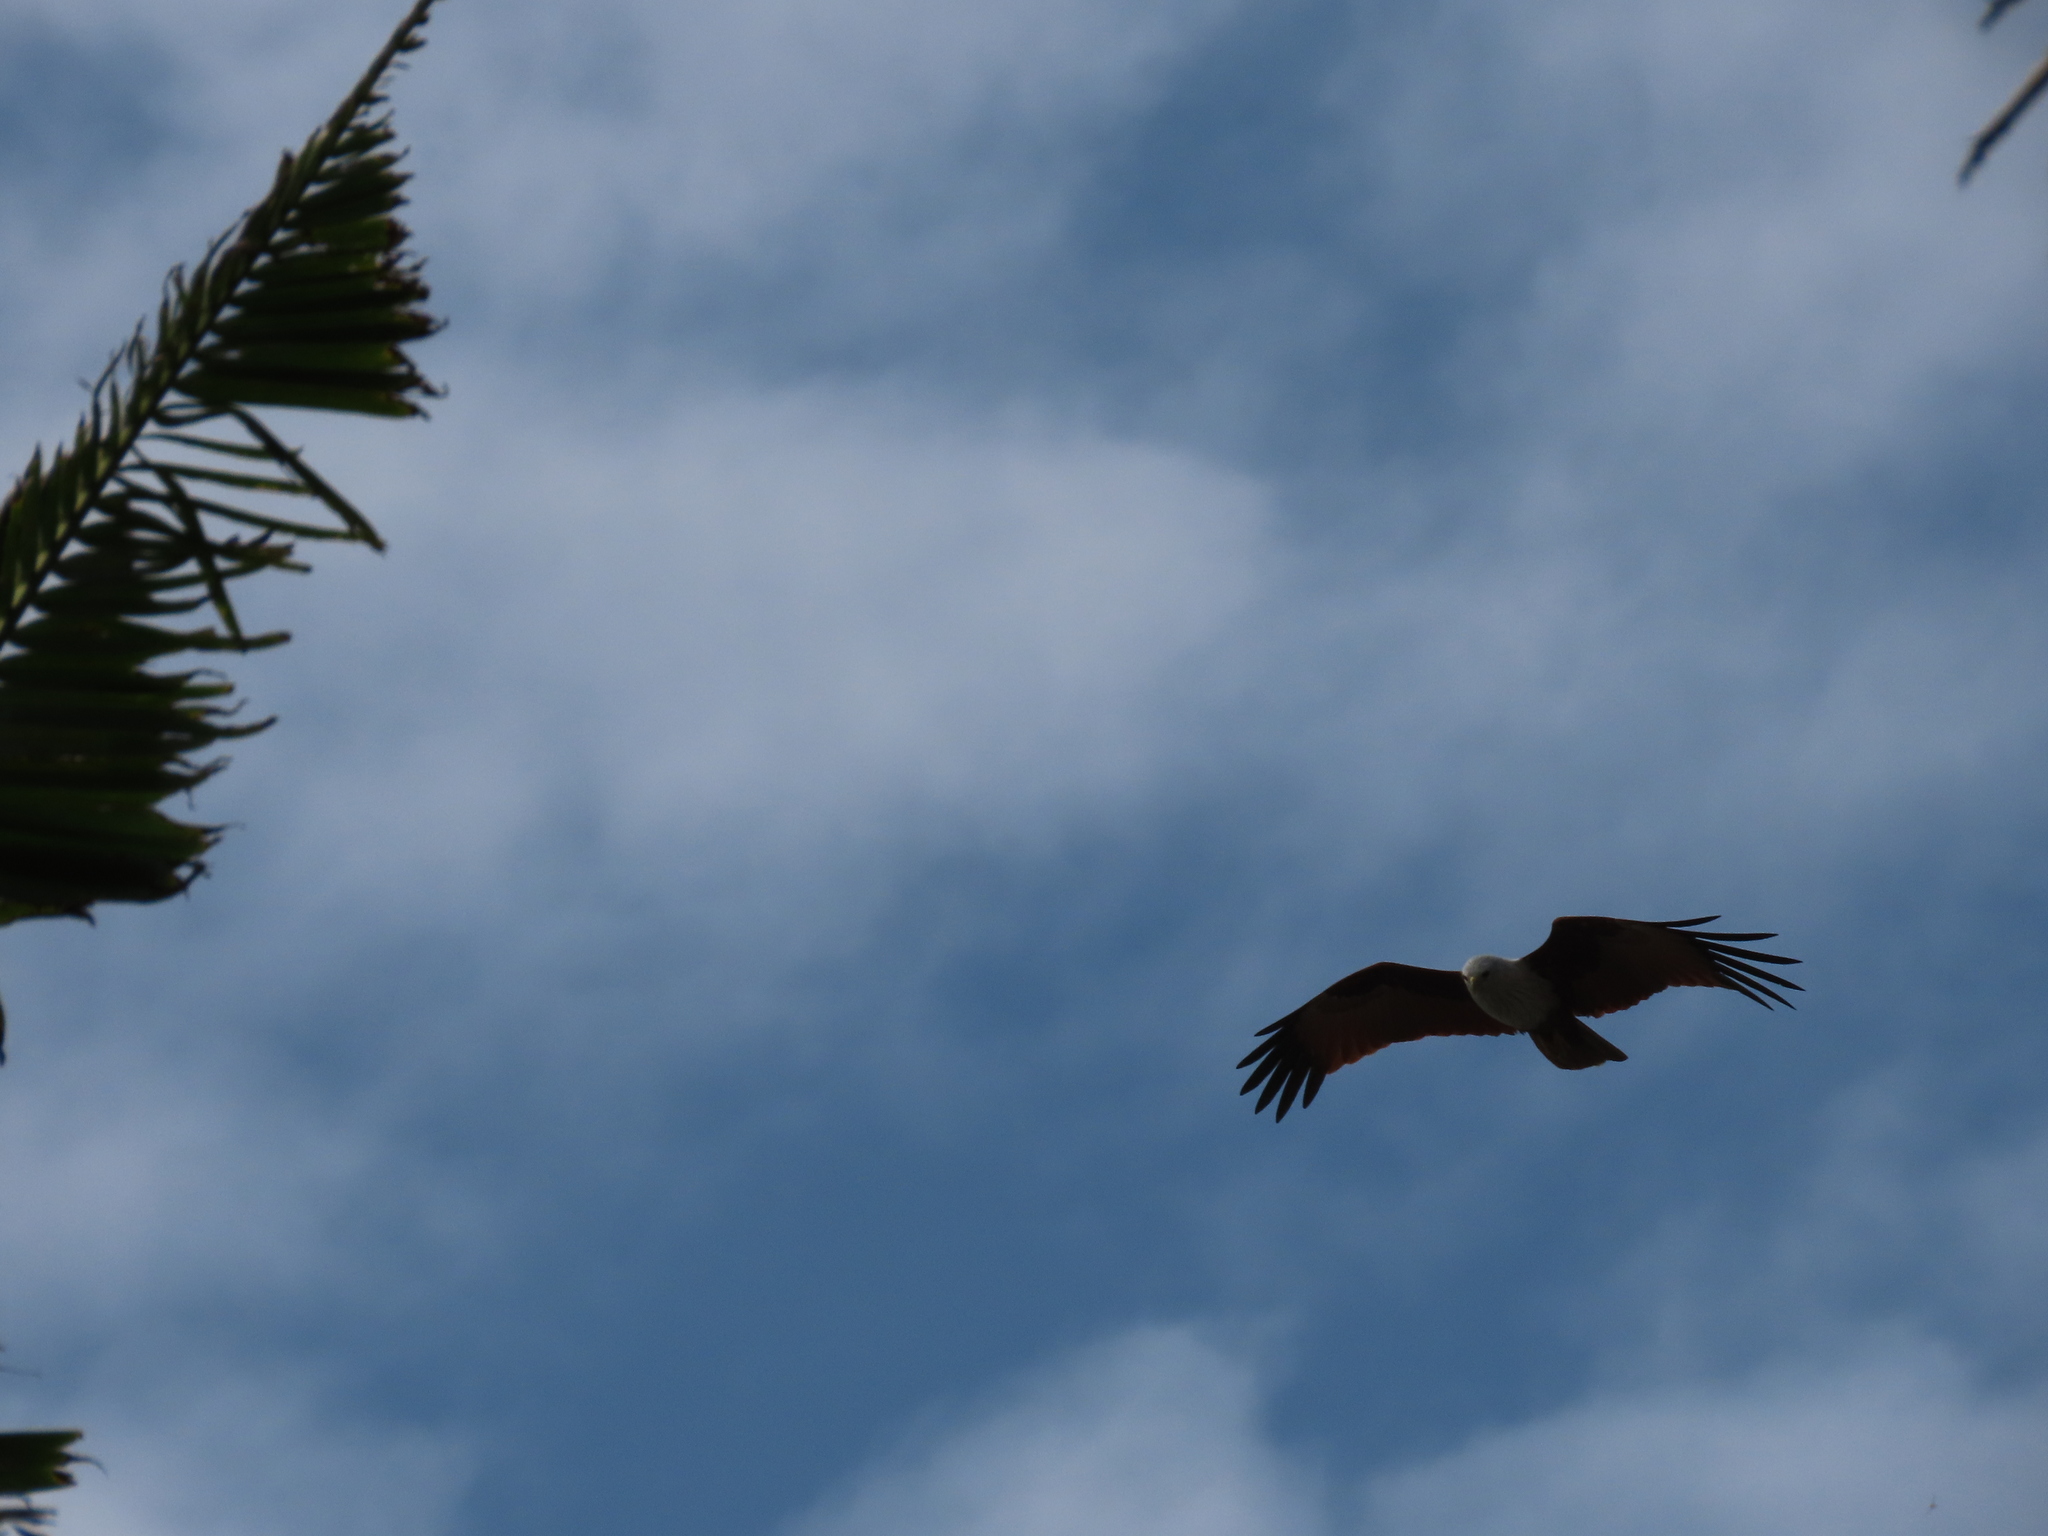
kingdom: Animalia
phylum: Chordata
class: Aves
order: Accipitriformes
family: Accipitridae
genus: Haliastur
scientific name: Haliastur indus
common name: Brahminy kite
